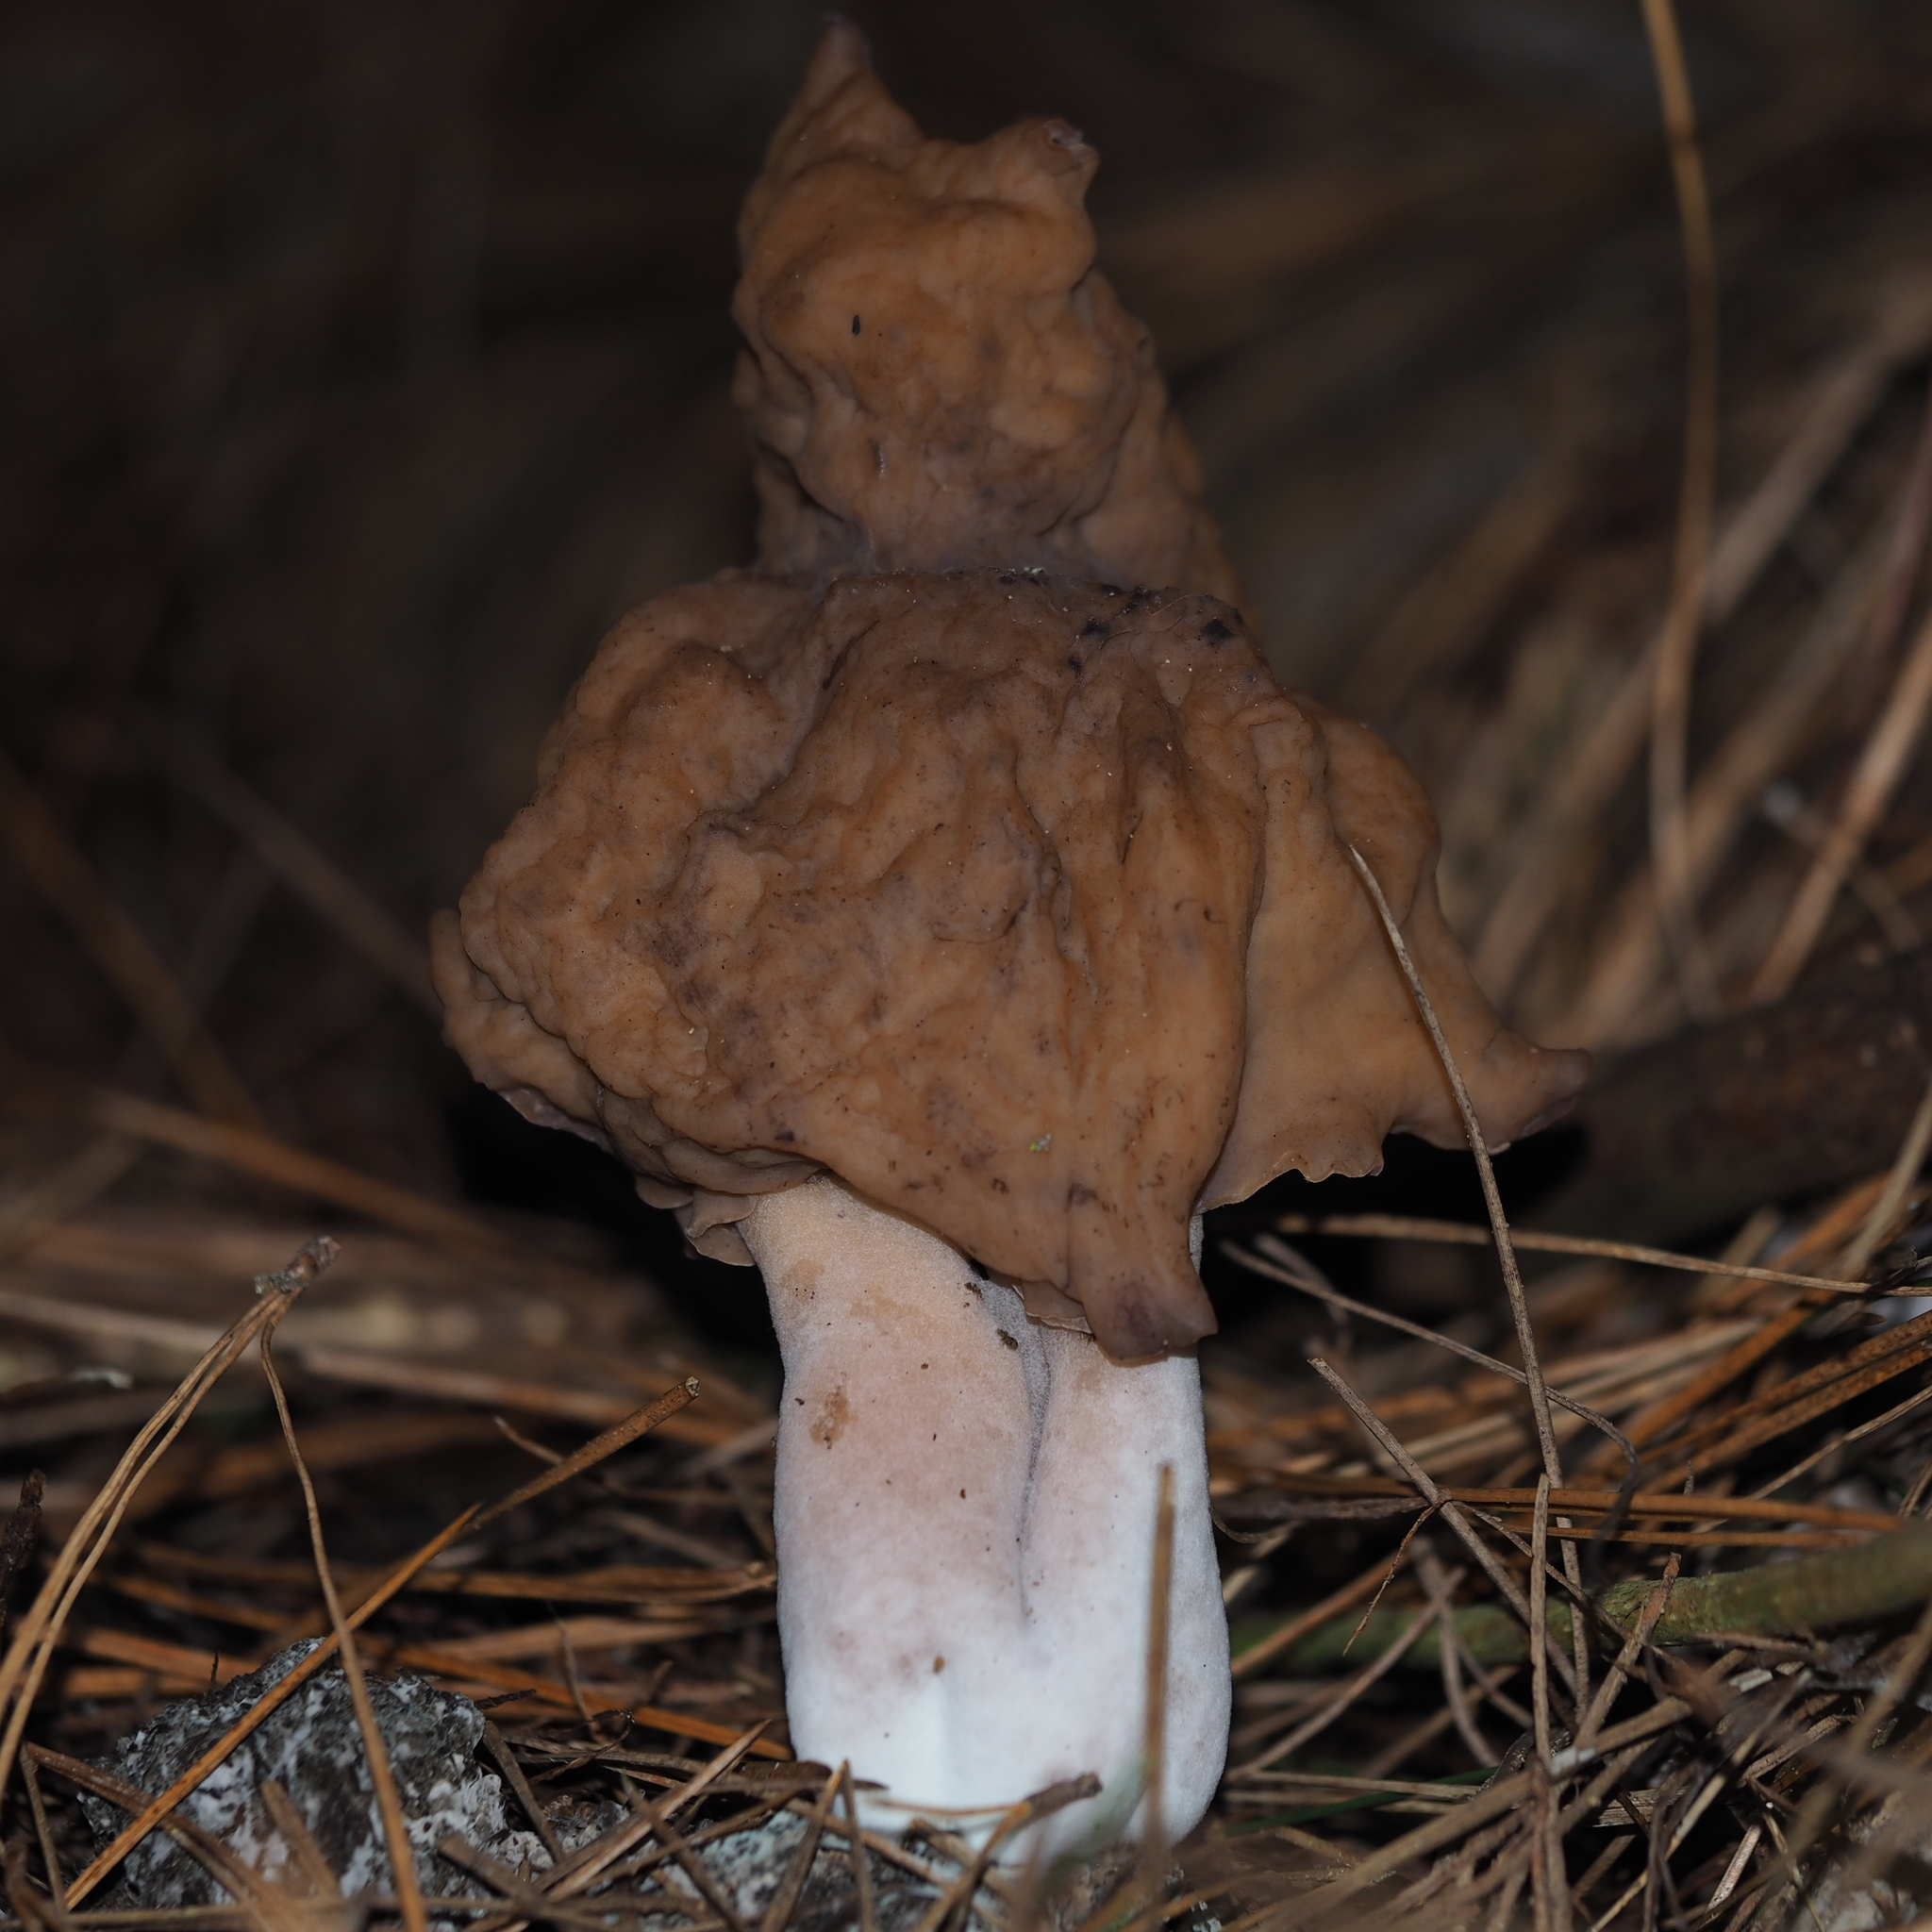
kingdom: Fungi
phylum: Ascomycota
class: Pezizomycetes
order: Pezizales
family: Discinaceae
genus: Gyromitra
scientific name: Gyromitra infula
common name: Pouched false morel
